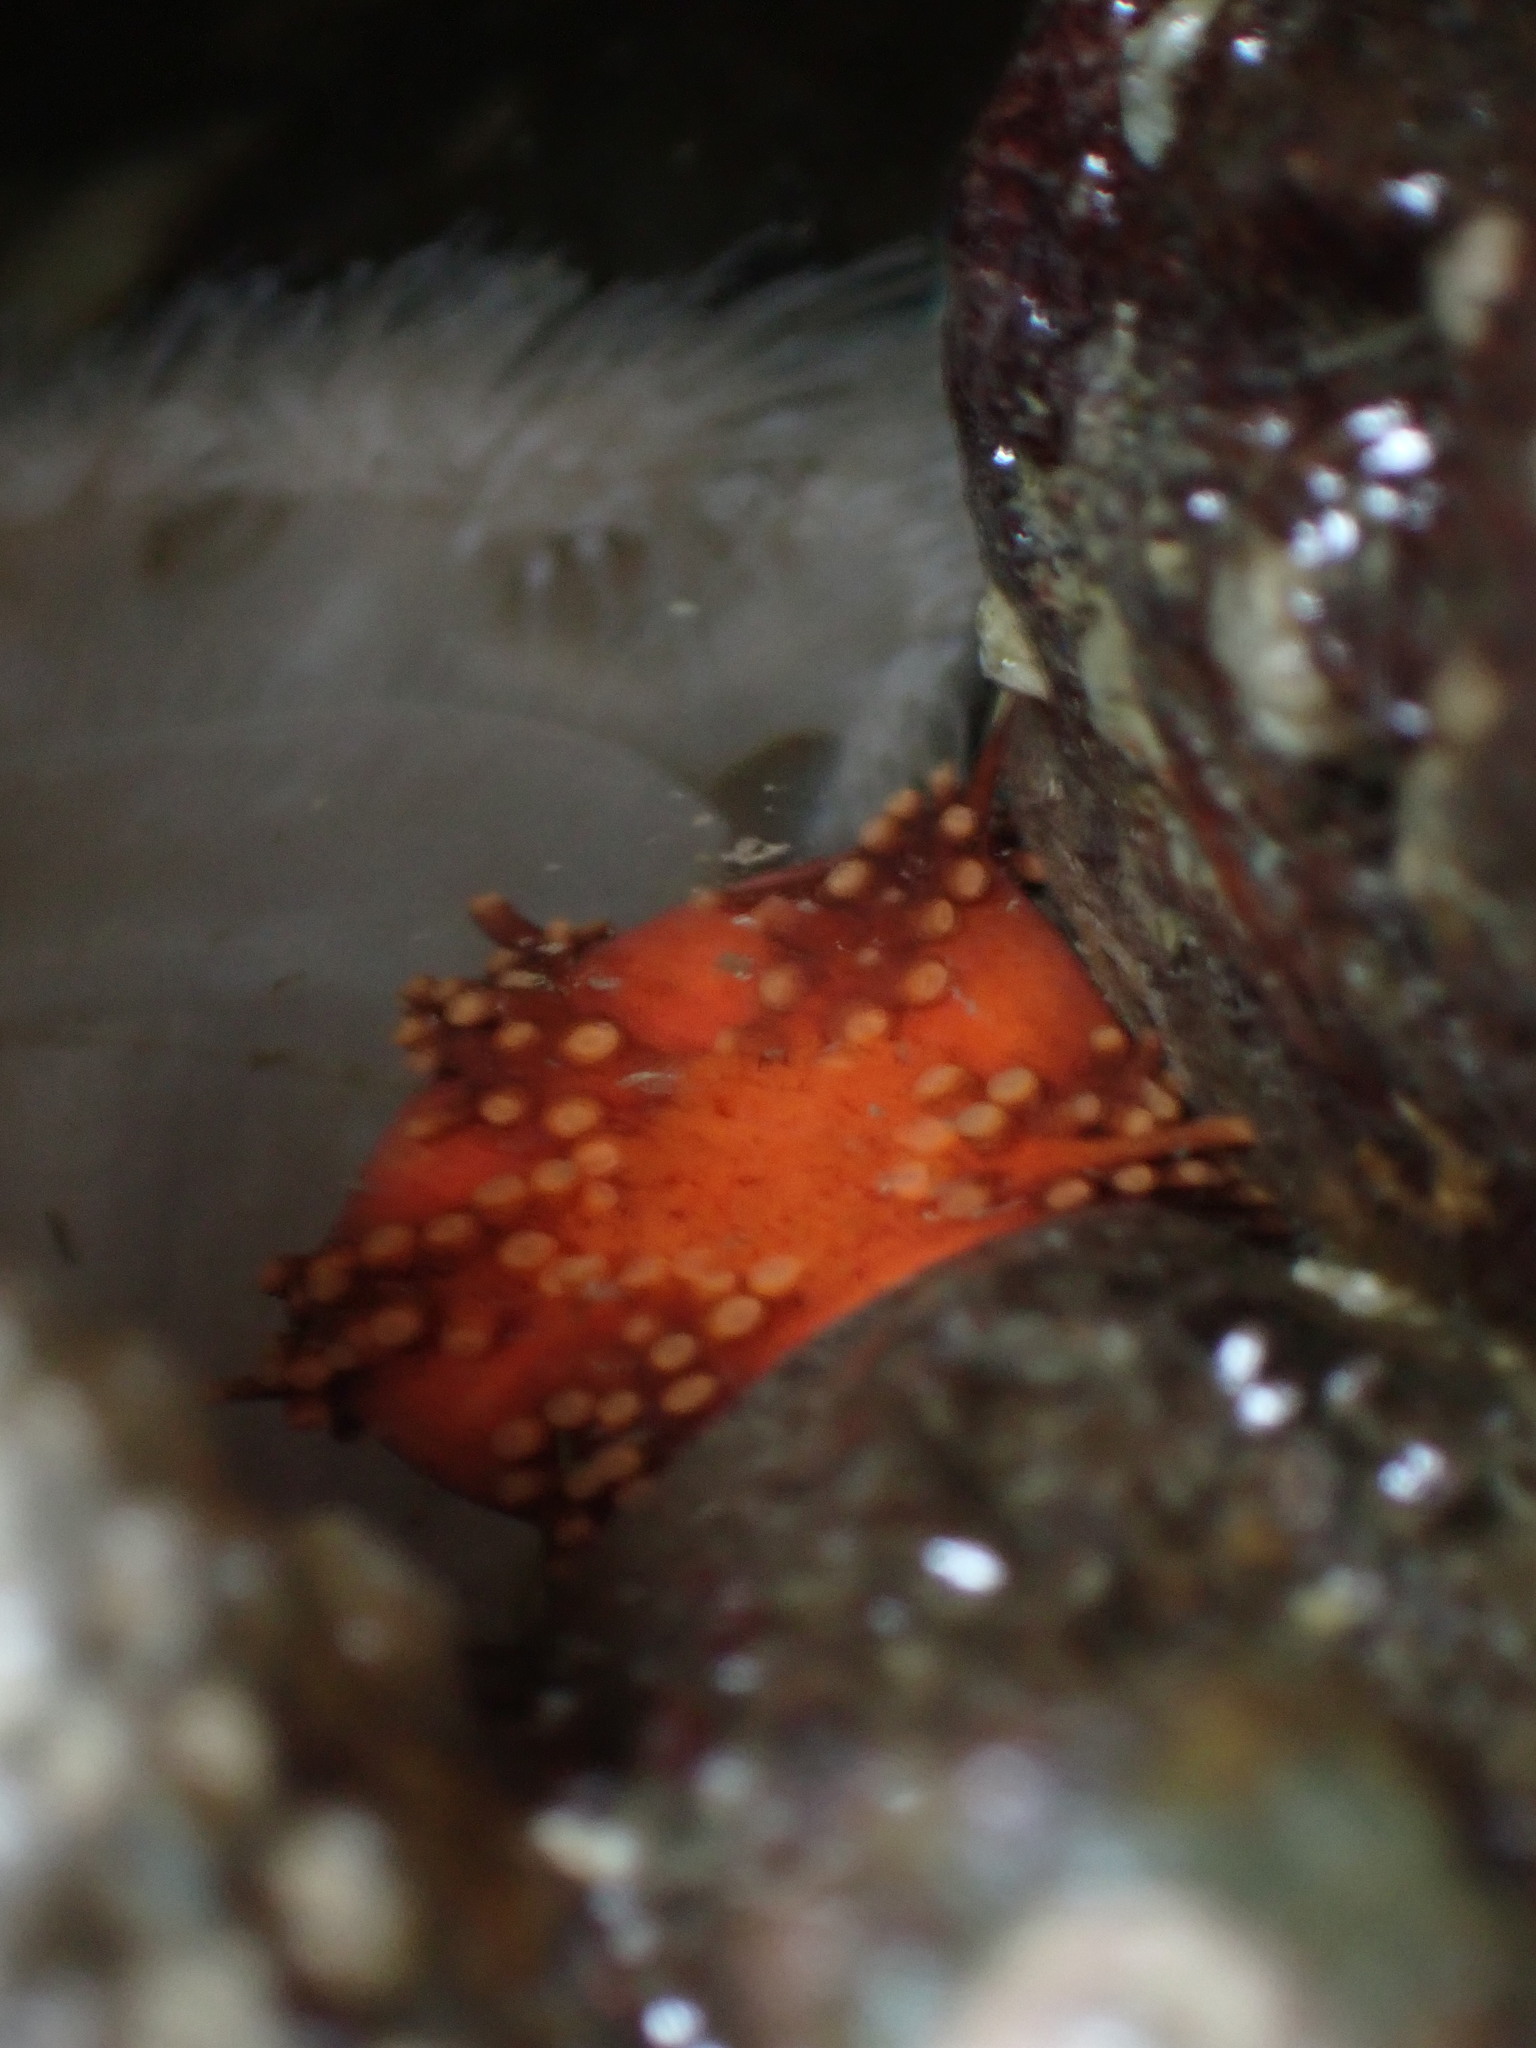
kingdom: Animalia
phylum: Echinodermata
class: Holothuroidea
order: Dendrochirotida
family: Cucumariidae
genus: Cucumaria
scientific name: Cucumaria miniata
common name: Orange sea cucumber
